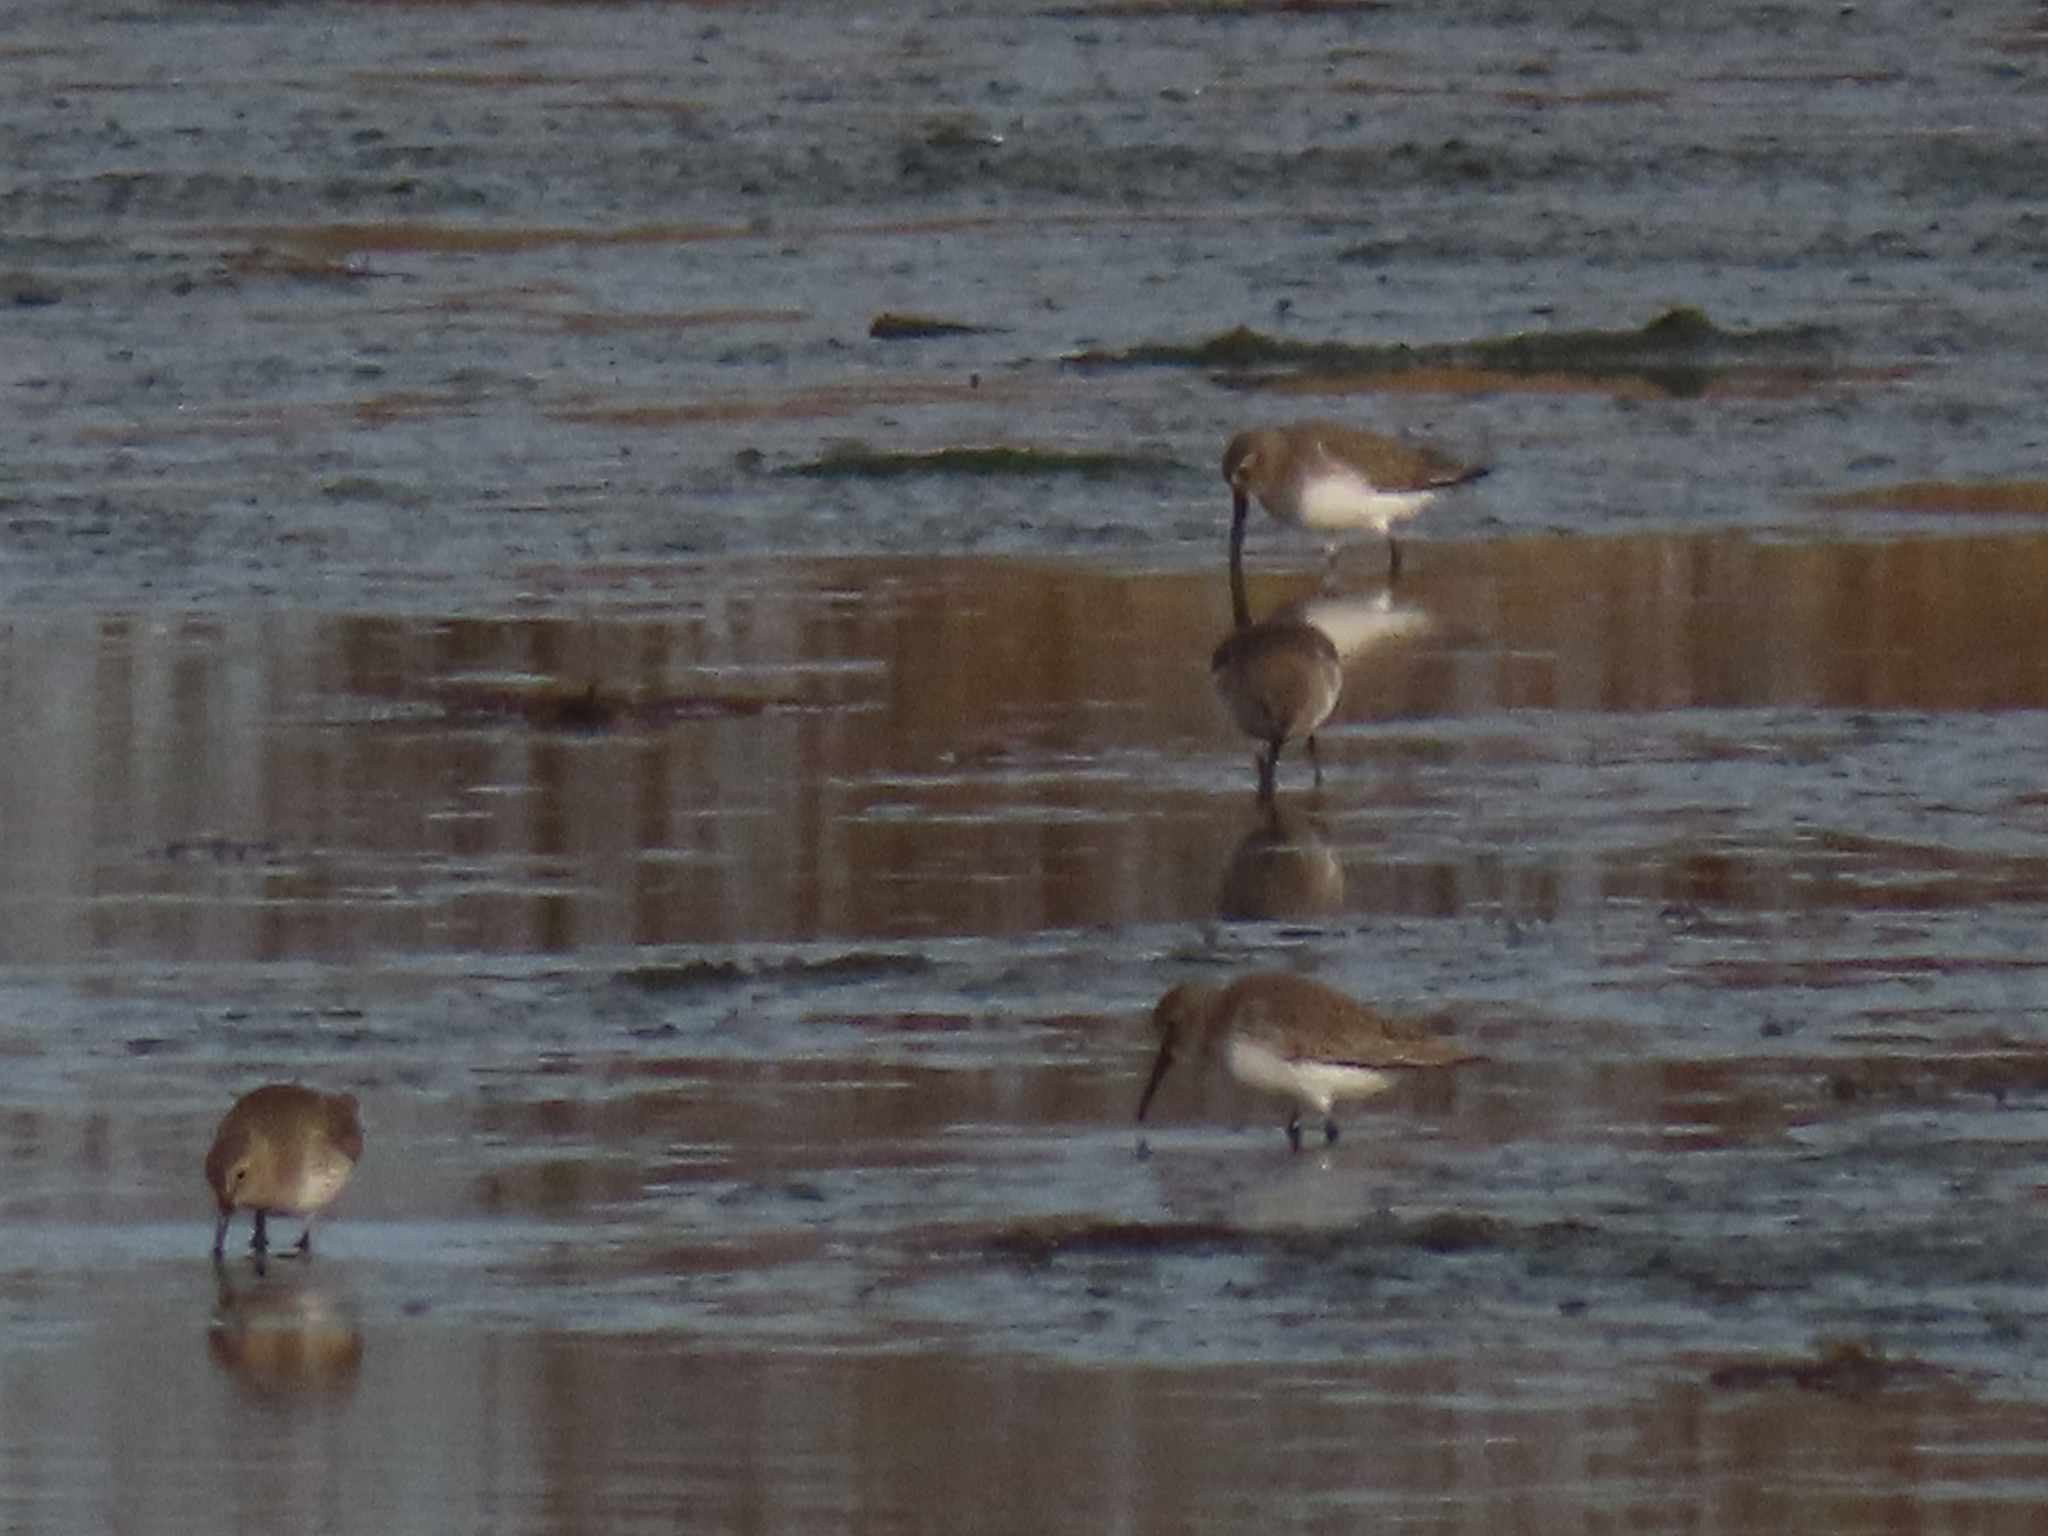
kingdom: Animalia
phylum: Chordata
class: Aves
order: Charadriiformes
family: Scolopacidae
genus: Calidris
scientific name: Calidris alpina
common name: Dunlin
